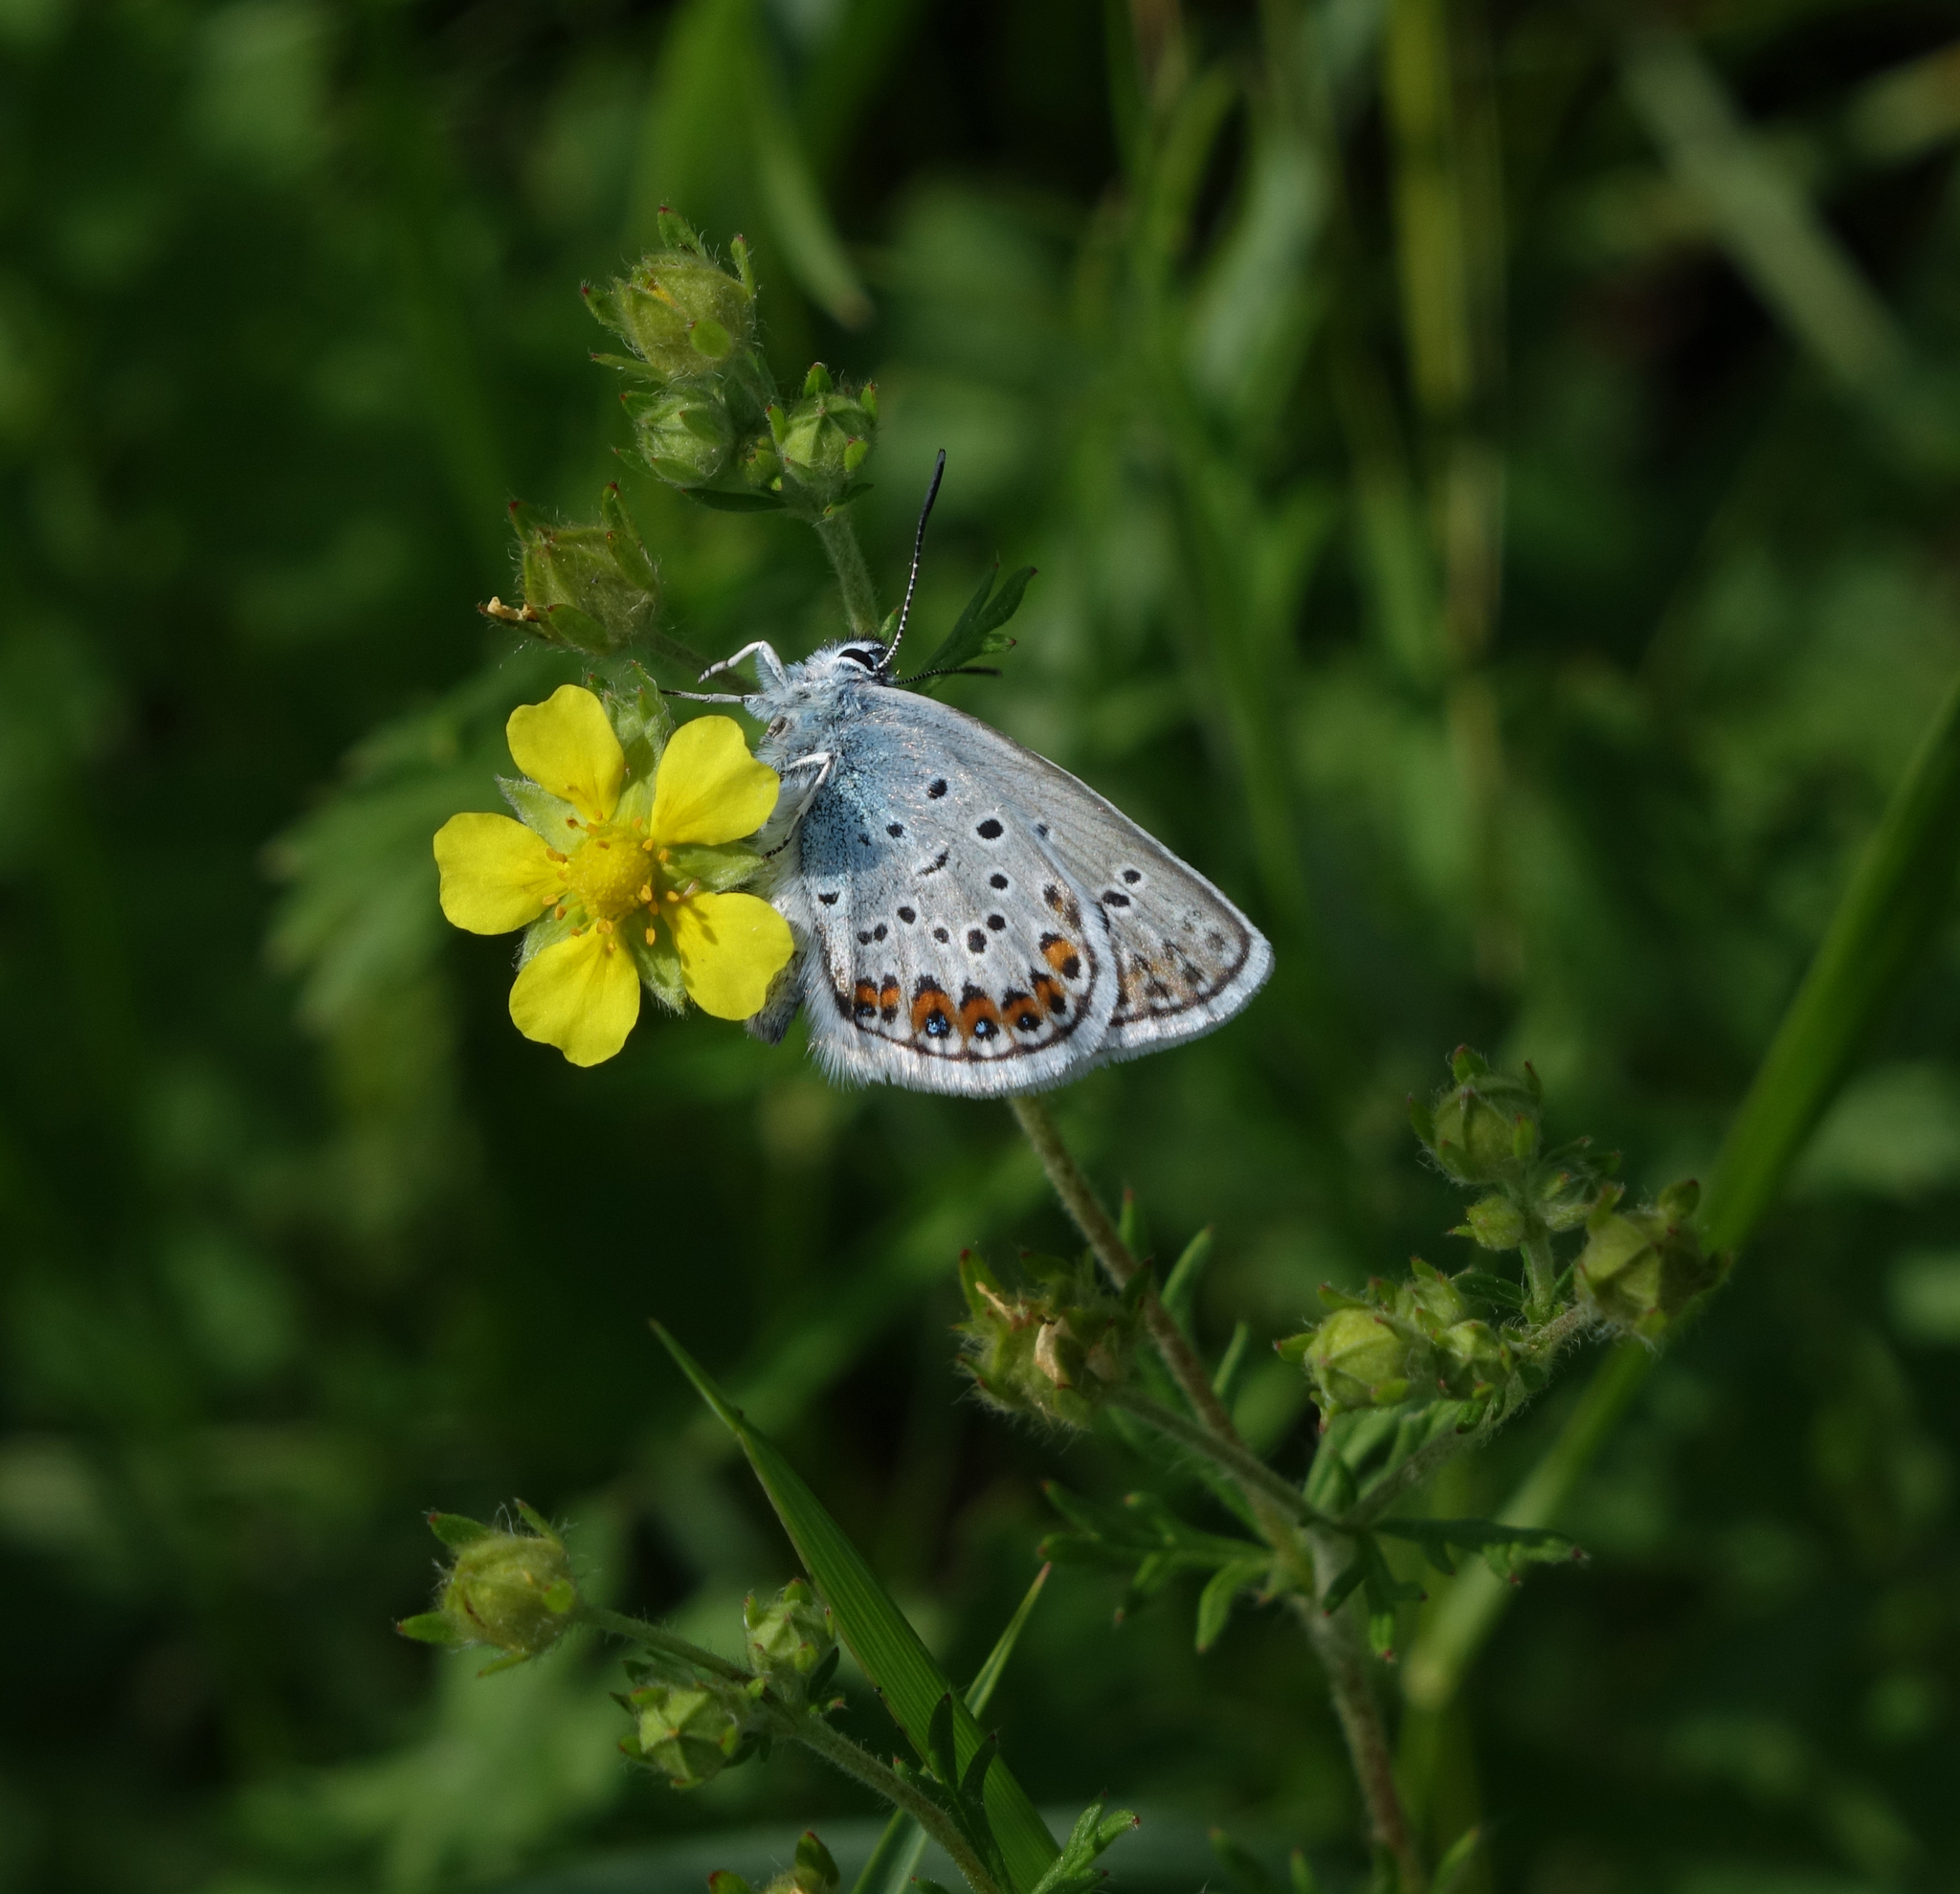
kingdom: Animalia
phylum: Arthropoda
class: Insecta
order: Lepidoptera
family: Lycaenidae
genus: Plebejus
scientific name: Plebejus argus
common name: Silver-studded blue
